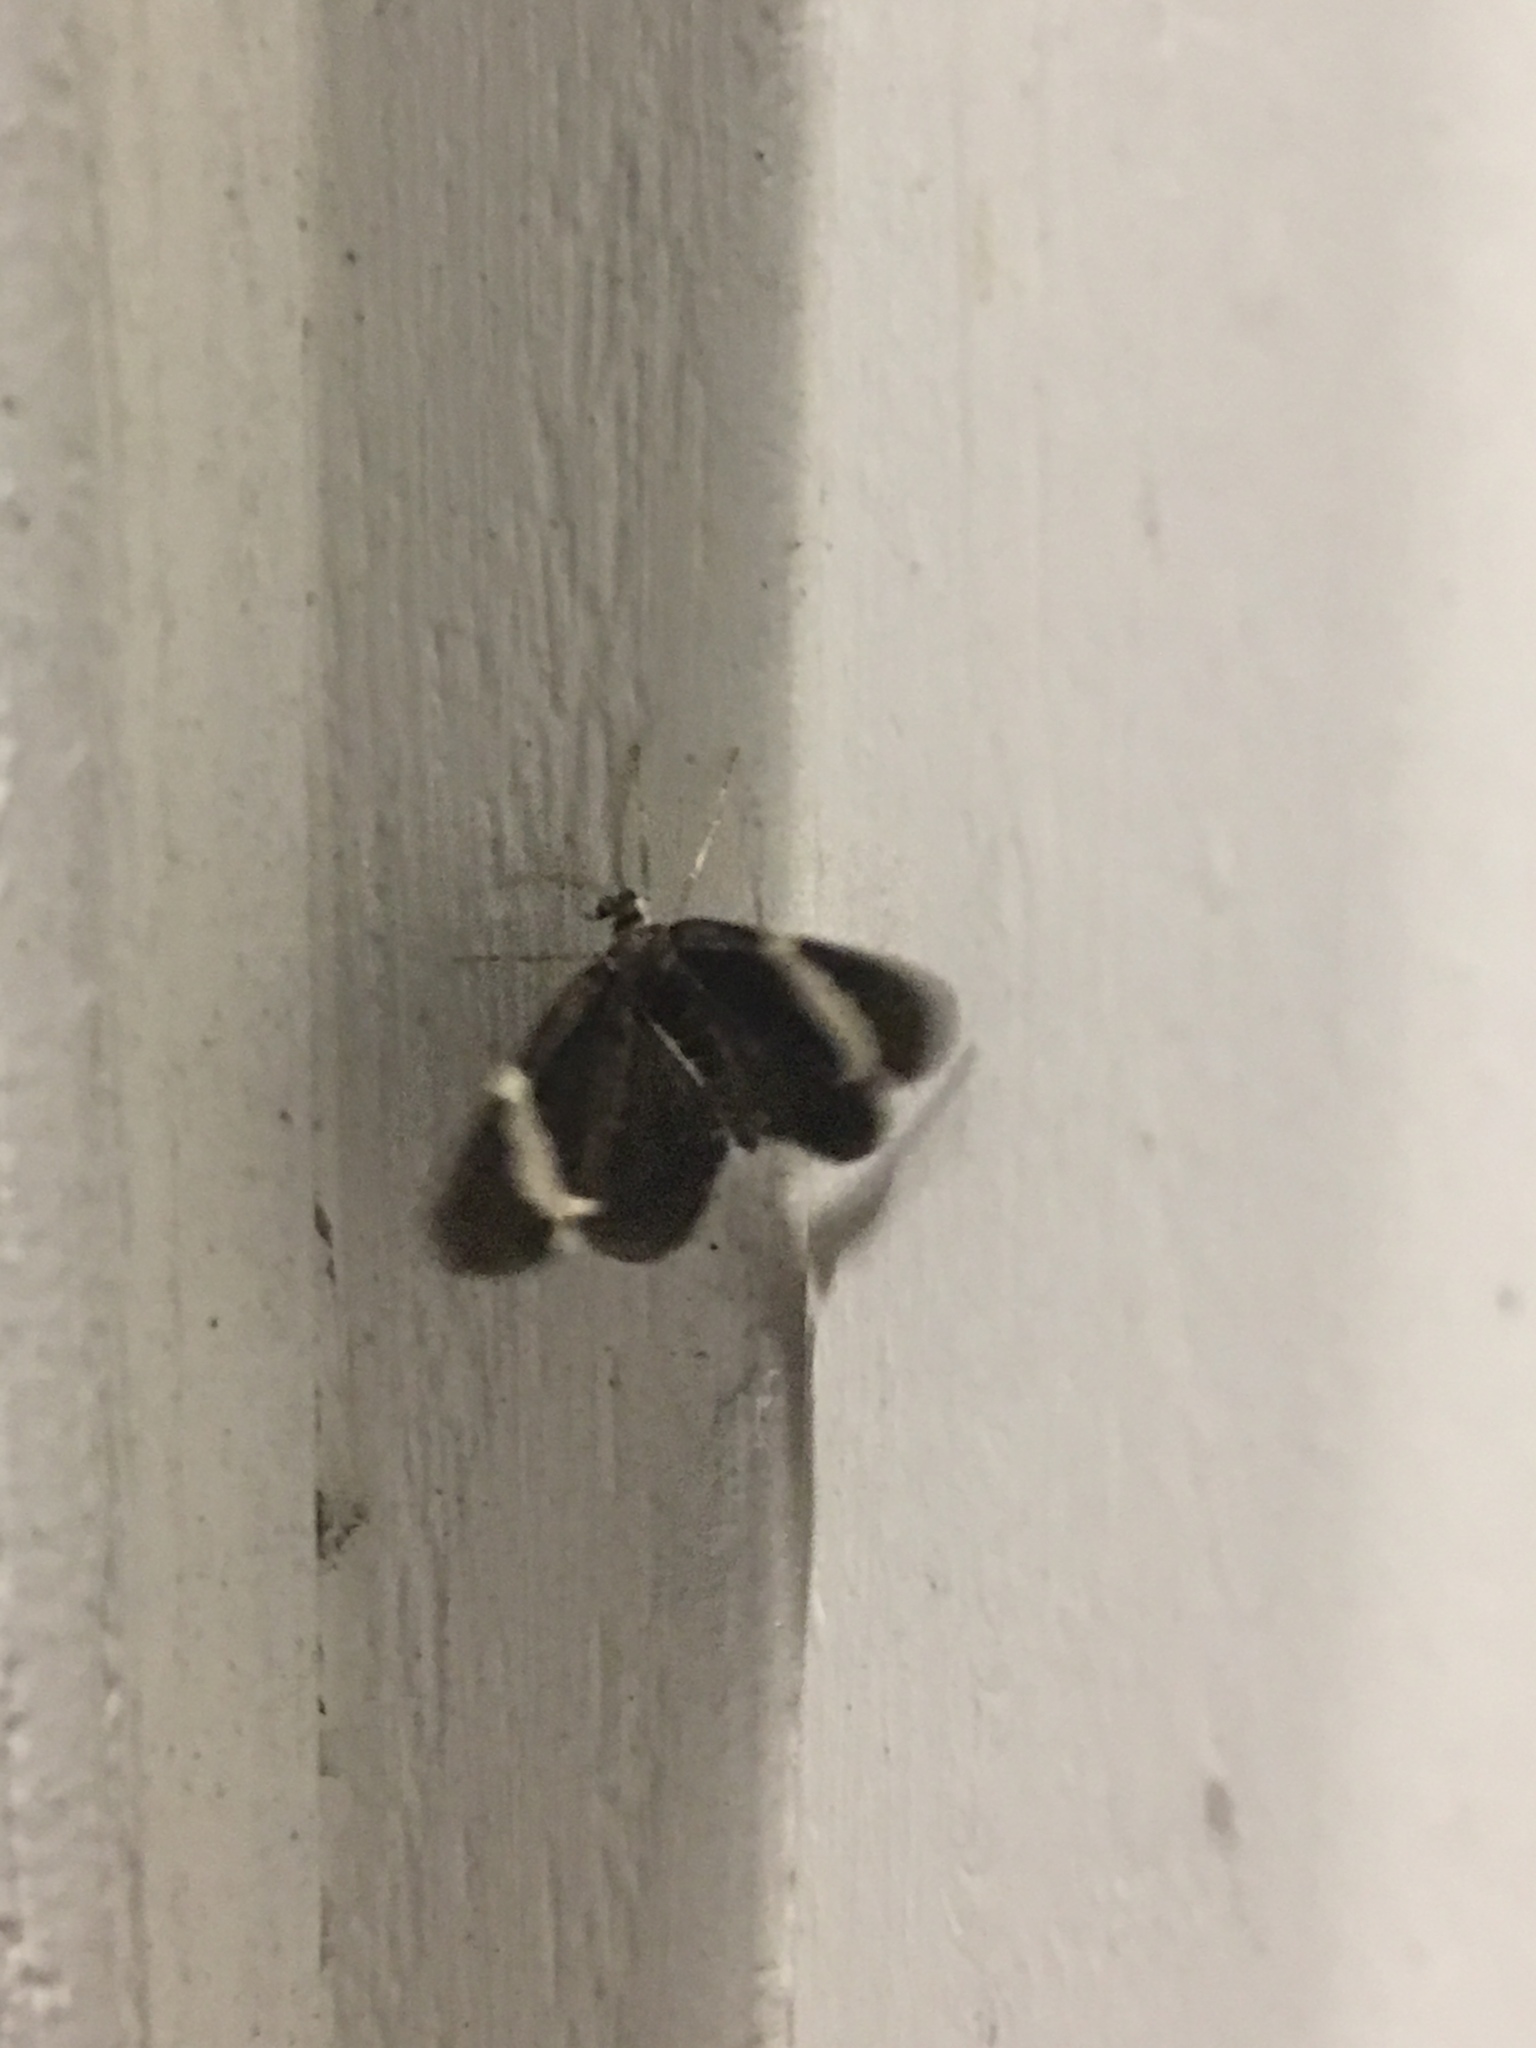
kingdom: Animalia
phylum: Arthropoda
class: Insecta
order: Lepidoptera
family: Geometridae
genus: Trichodezia
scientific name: Trichodezia albovittata
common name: White striped black
